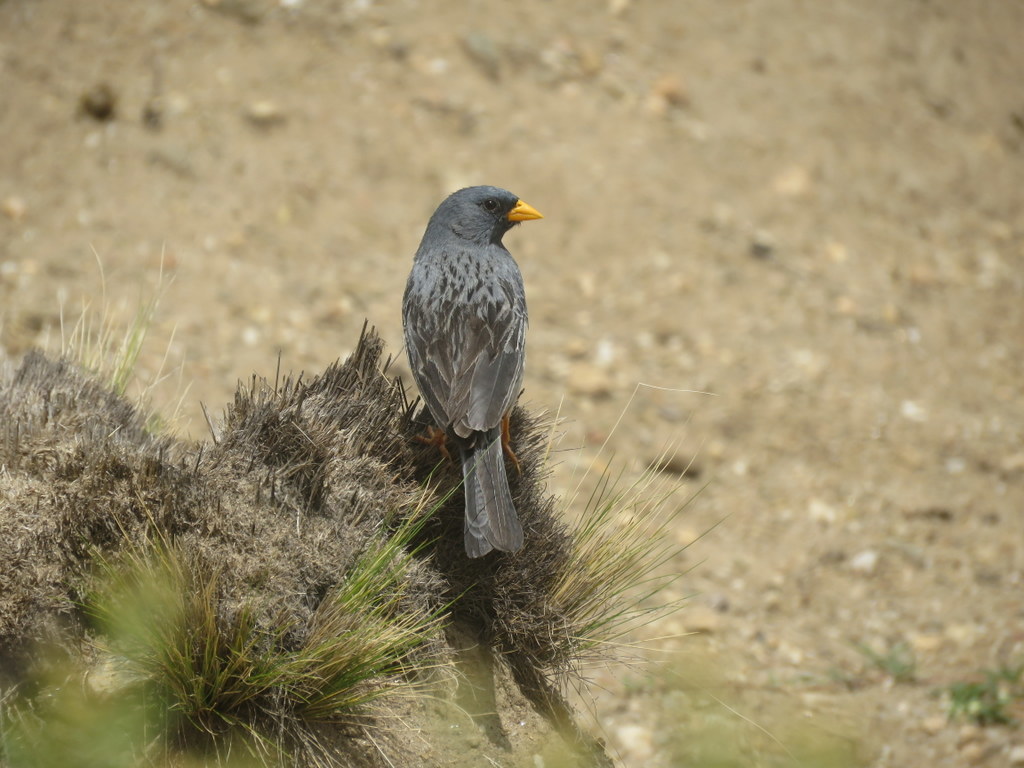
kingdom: Animalia
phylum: Chordata
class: Aves
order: Passeriformes
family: Thraupidae
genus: Porphyrospiza
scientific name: Porphyrospiza alaudina
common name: Band-tailed sierra finch
